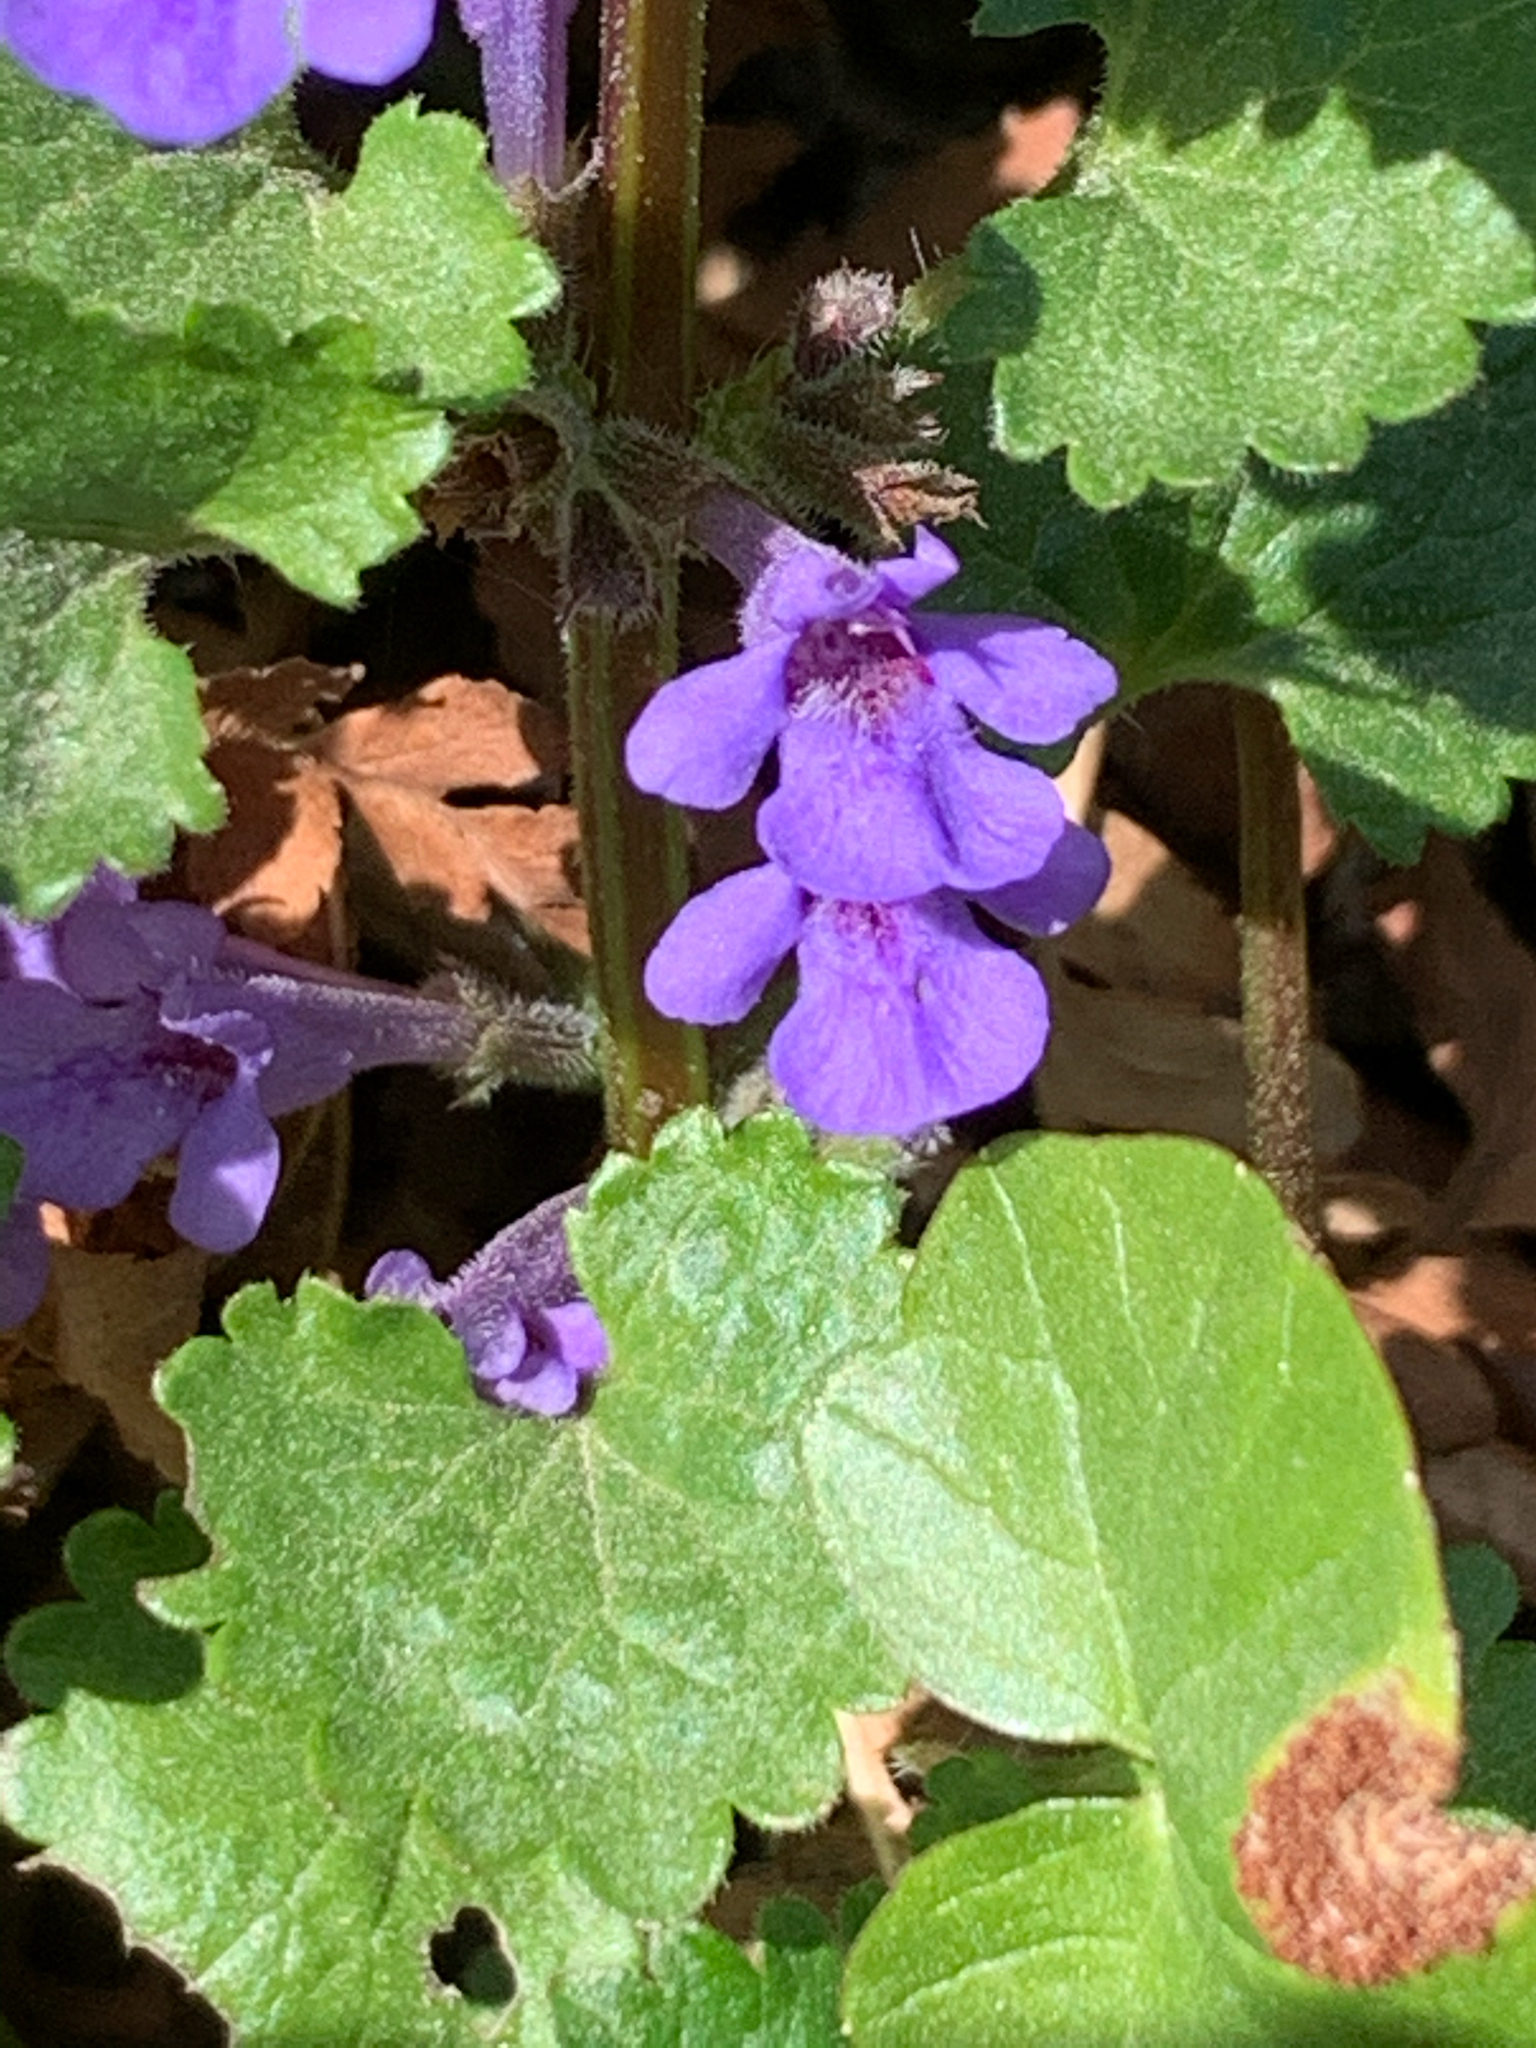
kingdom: Plantae
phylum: Tracheophyta
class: Magnoliopsida
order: Lamiales
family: Lamiaceae
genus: Glechoma
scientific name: Glechoma hederacea
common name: Ground ivy
